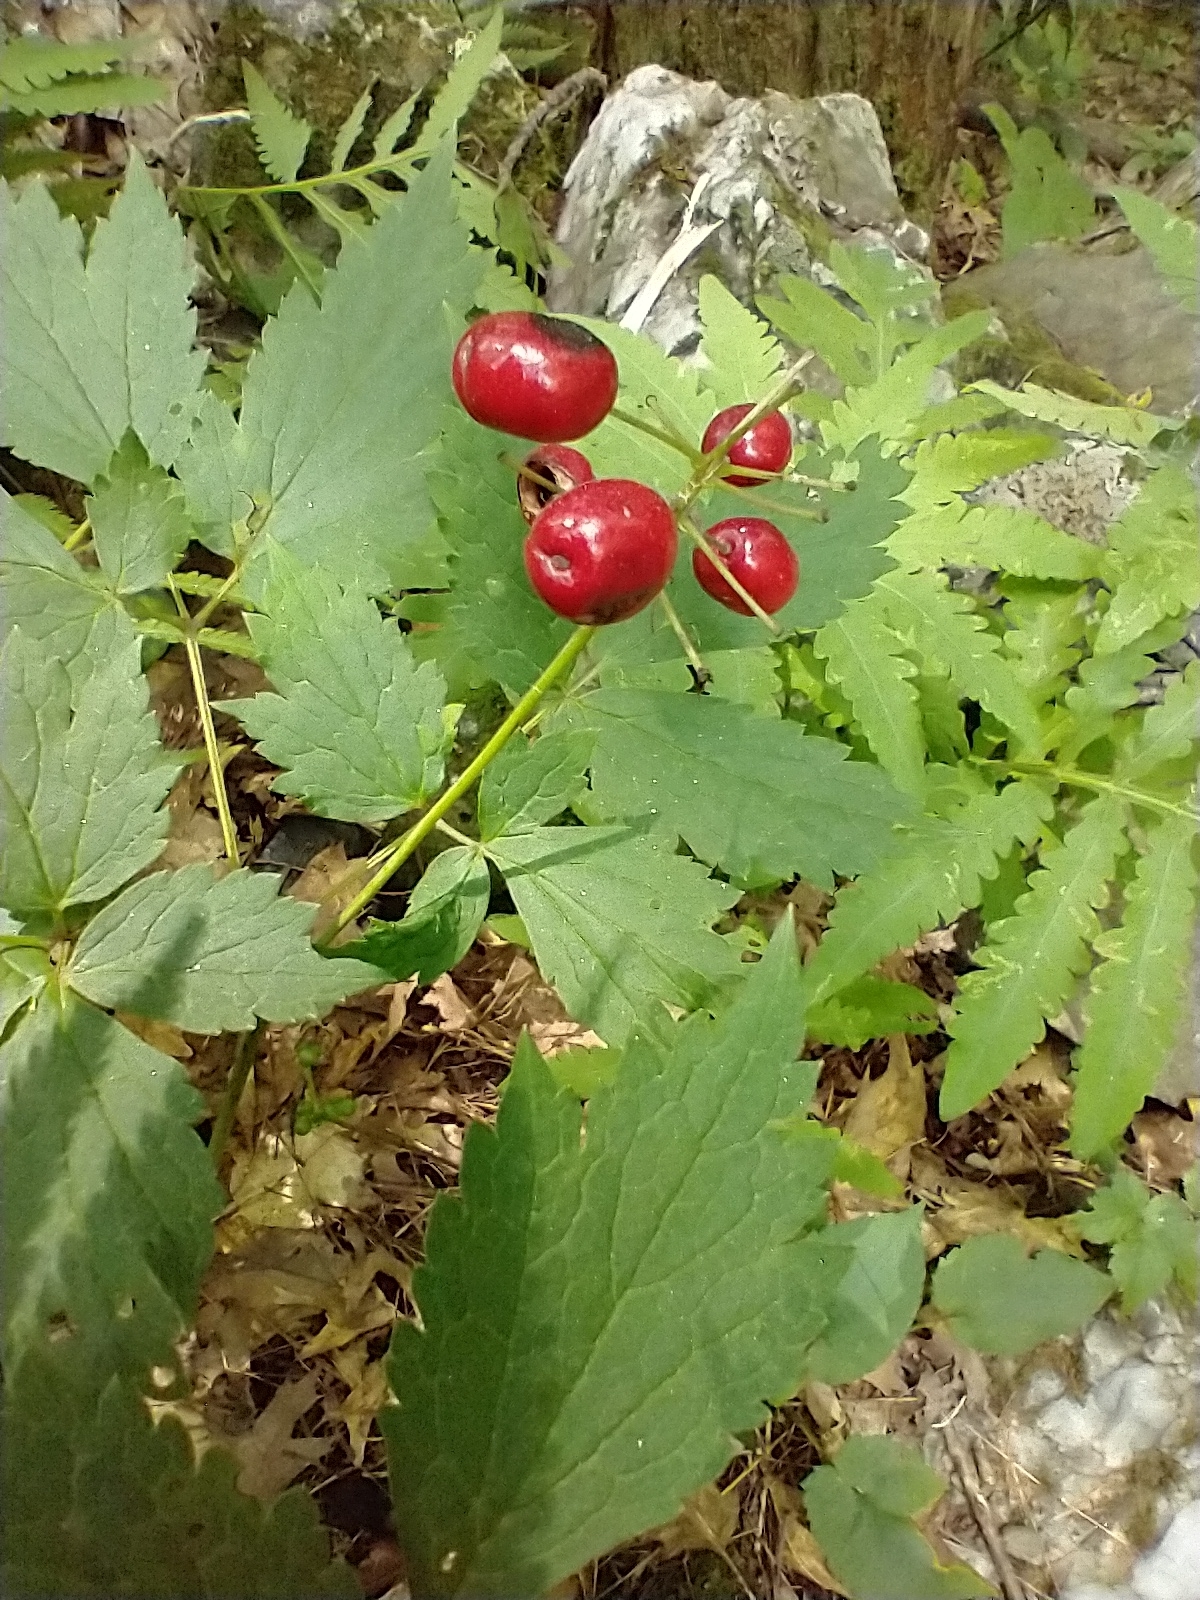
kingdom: Plantae
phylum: Tracheophyta
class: Magnoliopsida
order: Ranunculales
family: Ranunculaceae
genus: Actaea
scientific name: Actaea rubra
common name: Red baneberry
